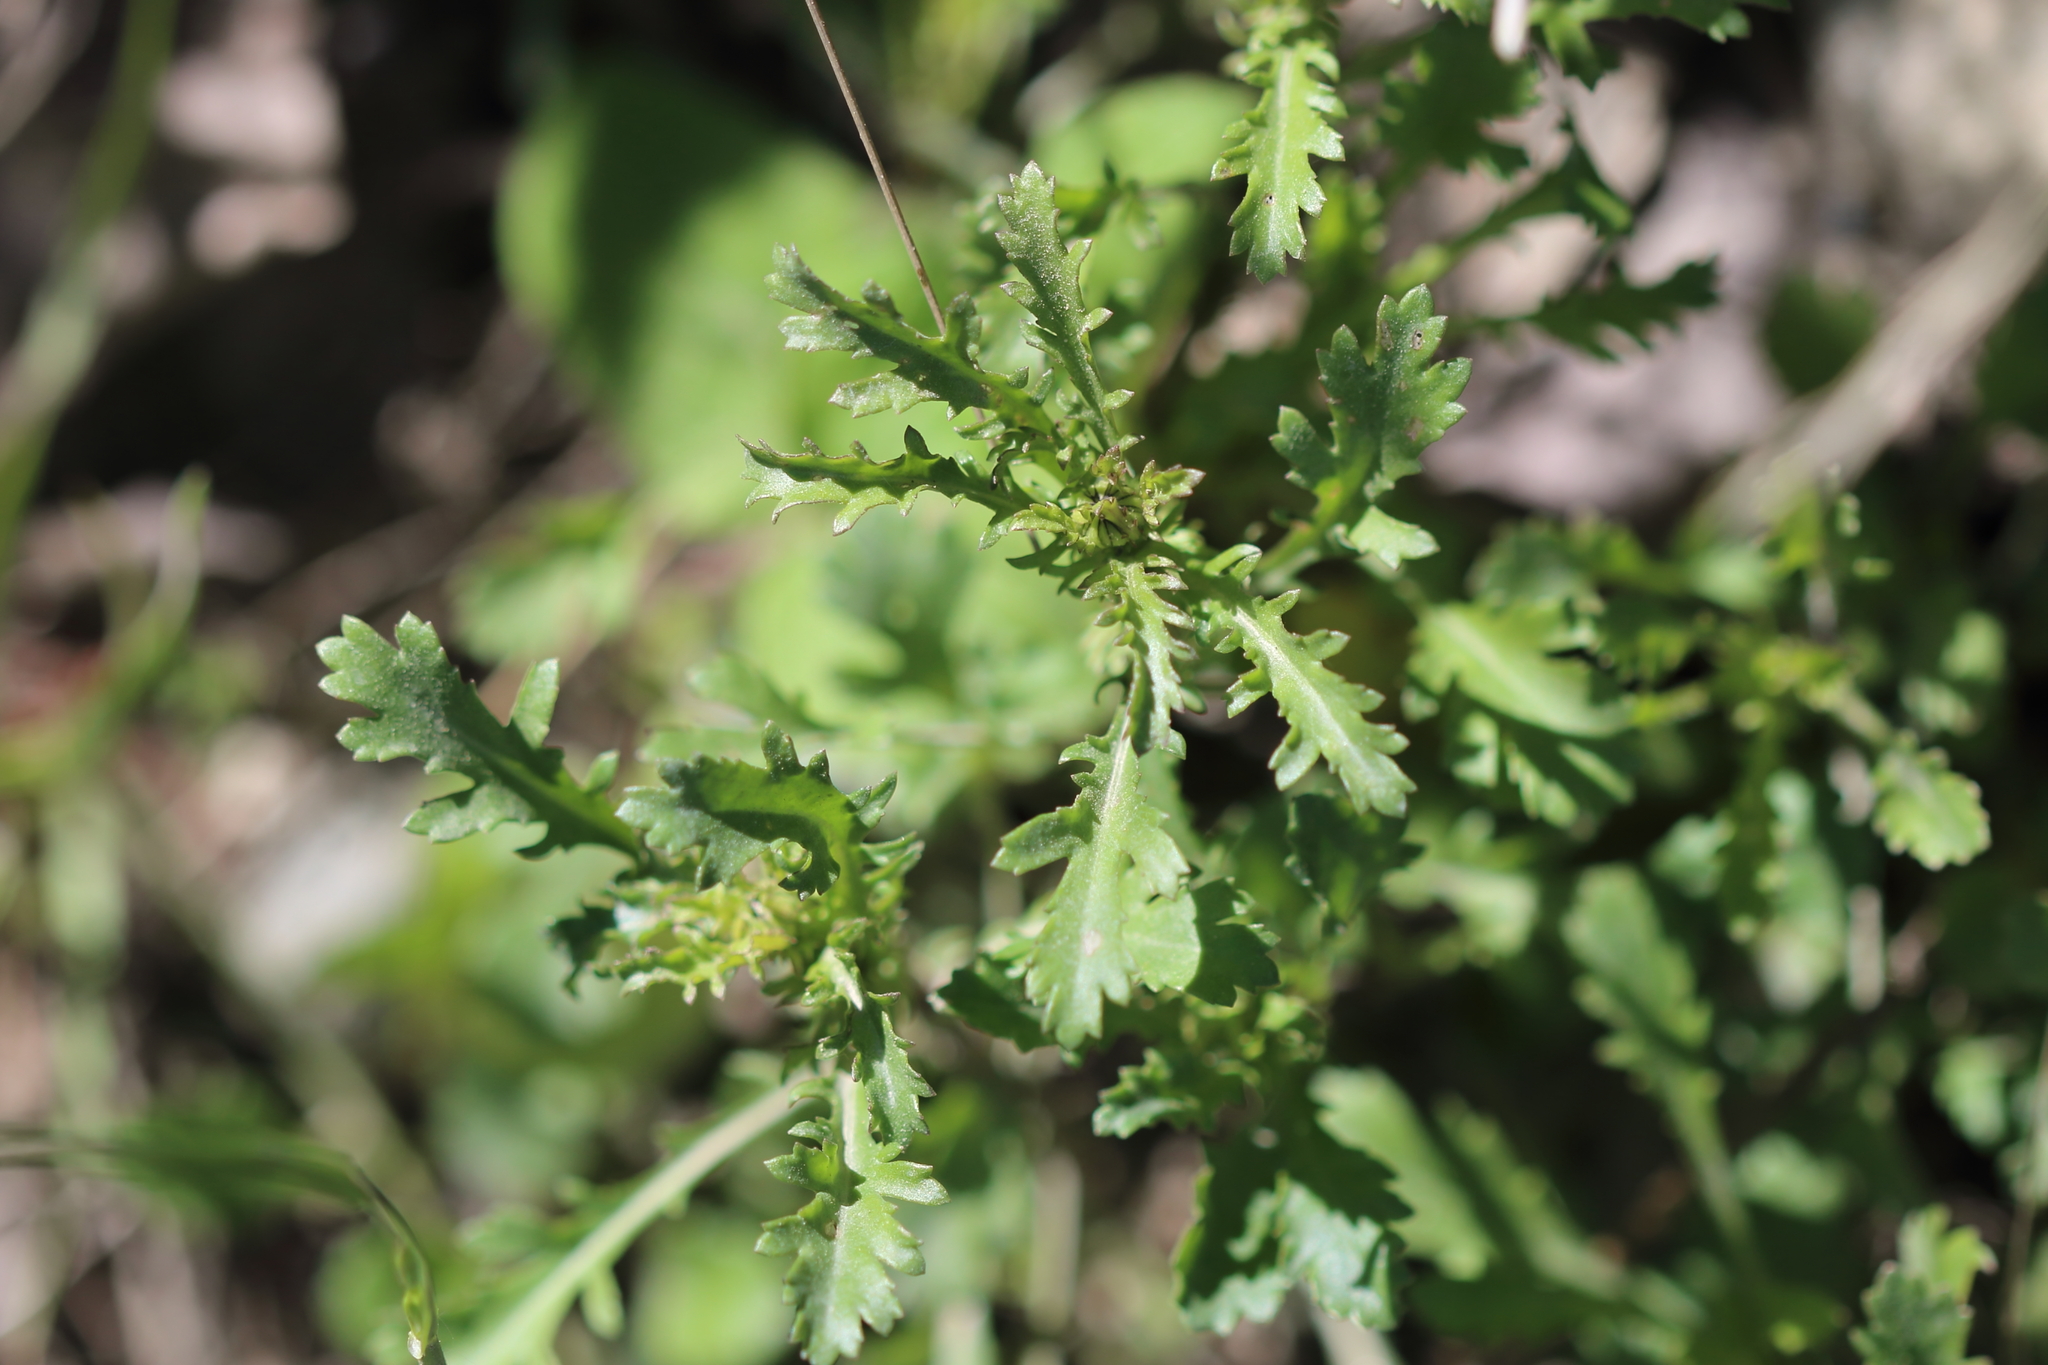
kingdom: Plantae
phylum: Tracheophyta
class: Magnoliopsida
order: Asterales
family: Asteraceae
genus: Leucanthemum
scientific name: Leucanthemum vulgare
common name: Oxeye daisy
